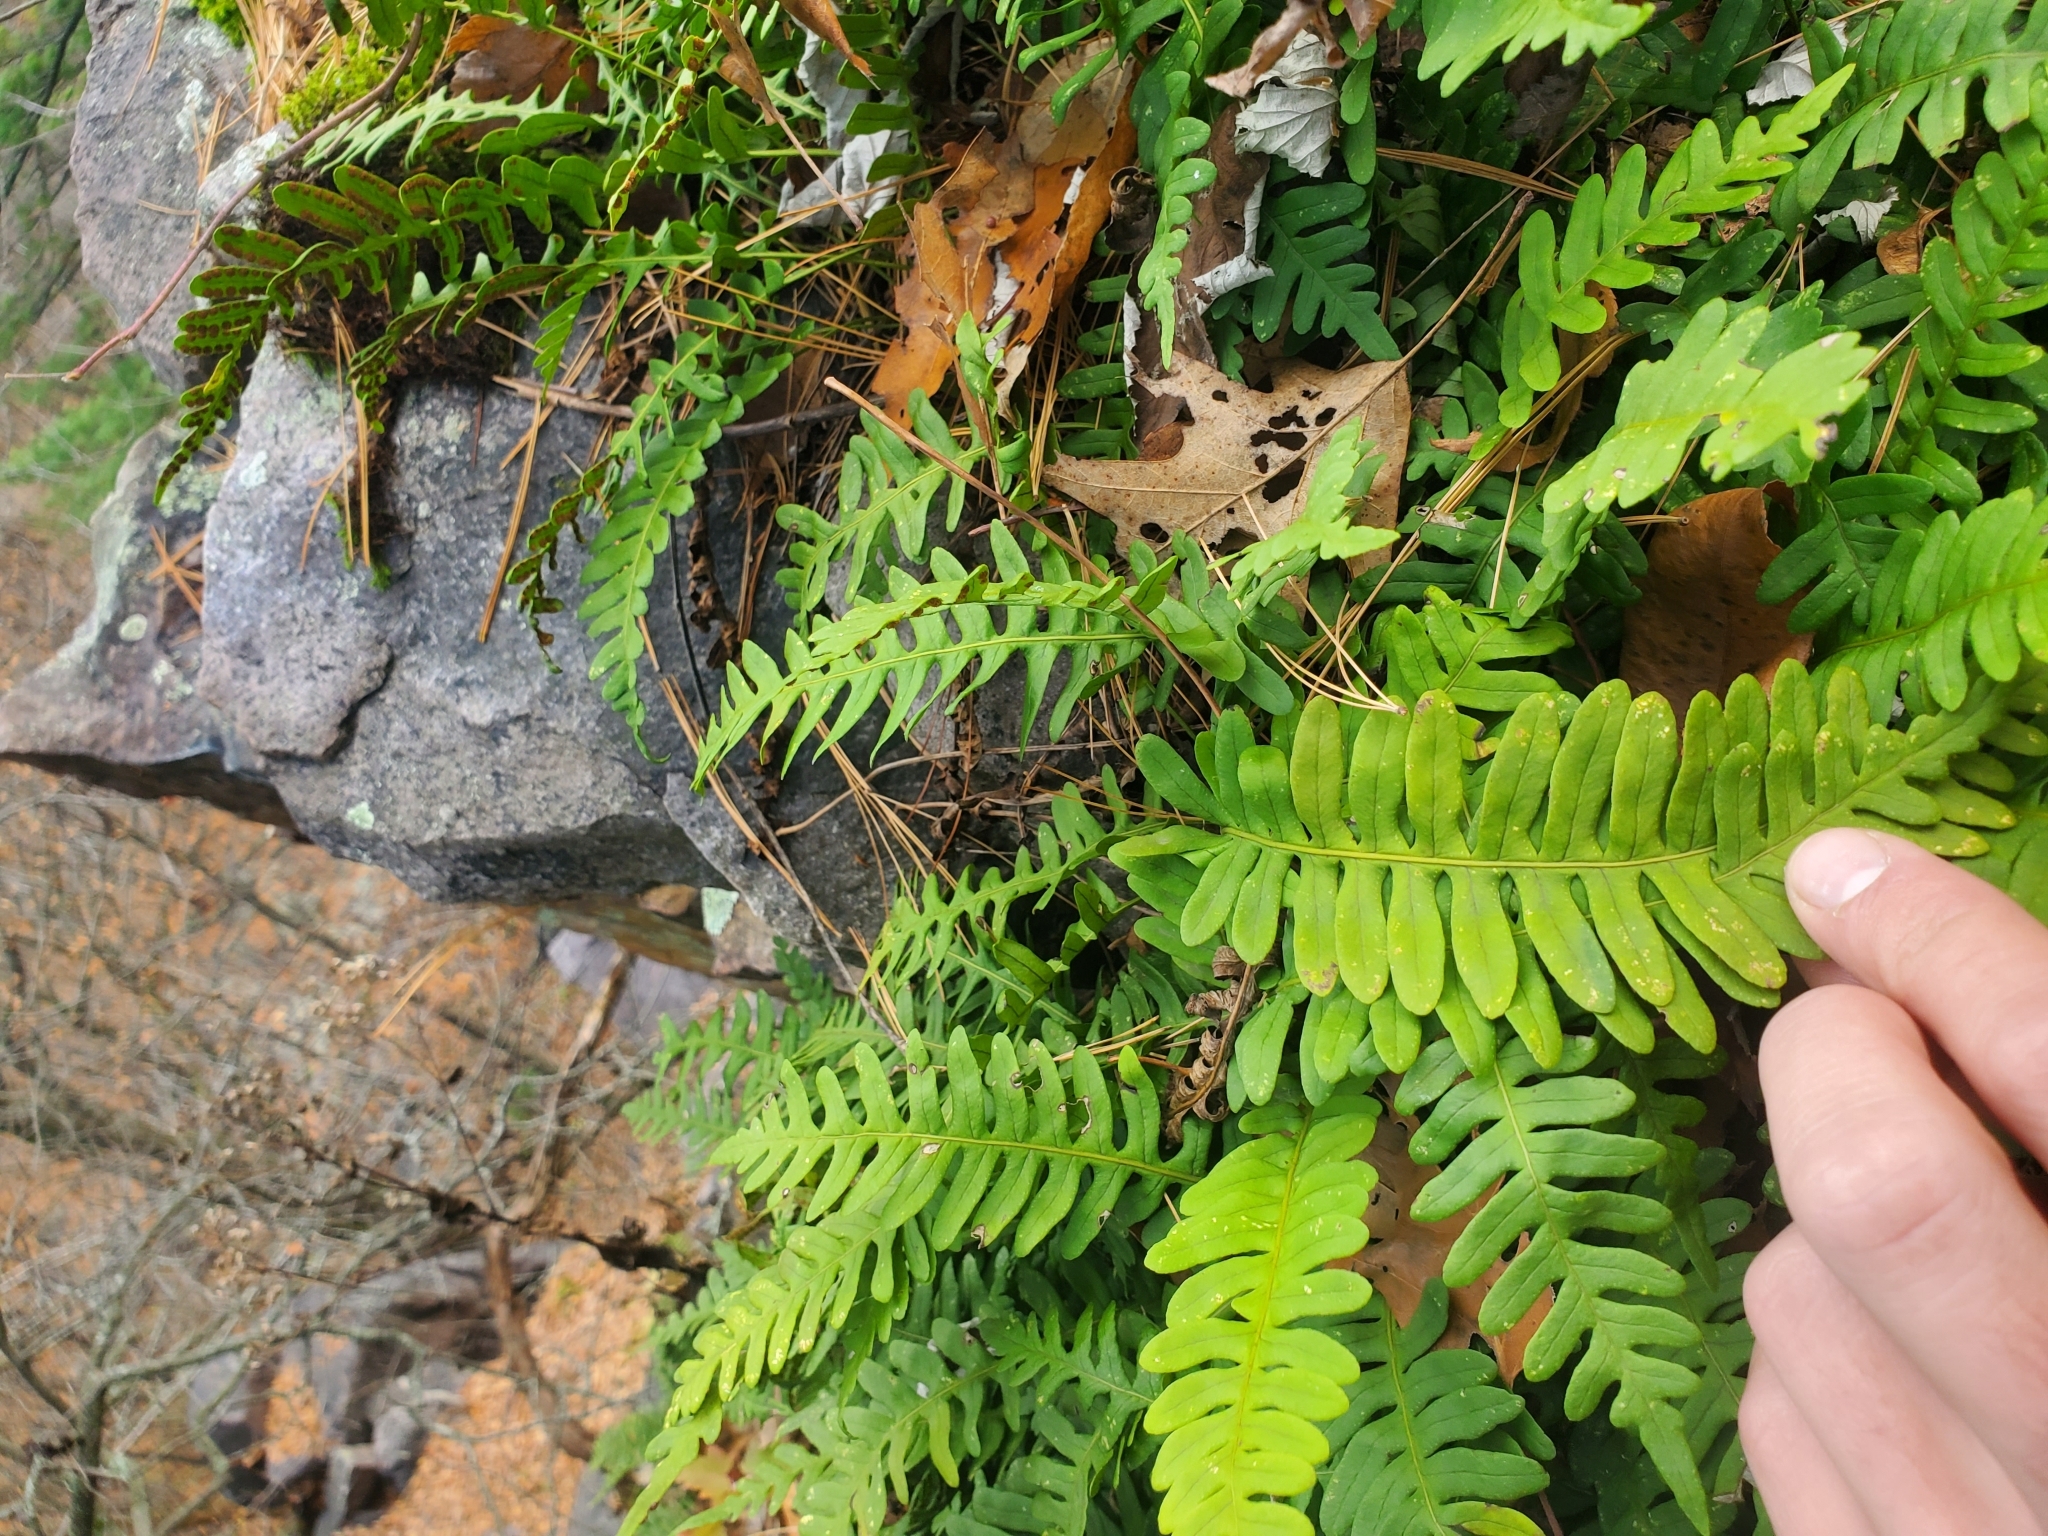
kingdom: Plantae
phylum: Tracheophyta
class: Polypodiopsida
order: Polypodiales
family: Polypodiaceae
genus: Polypodium
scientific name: Polypodium virginianum
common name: American wall fern
